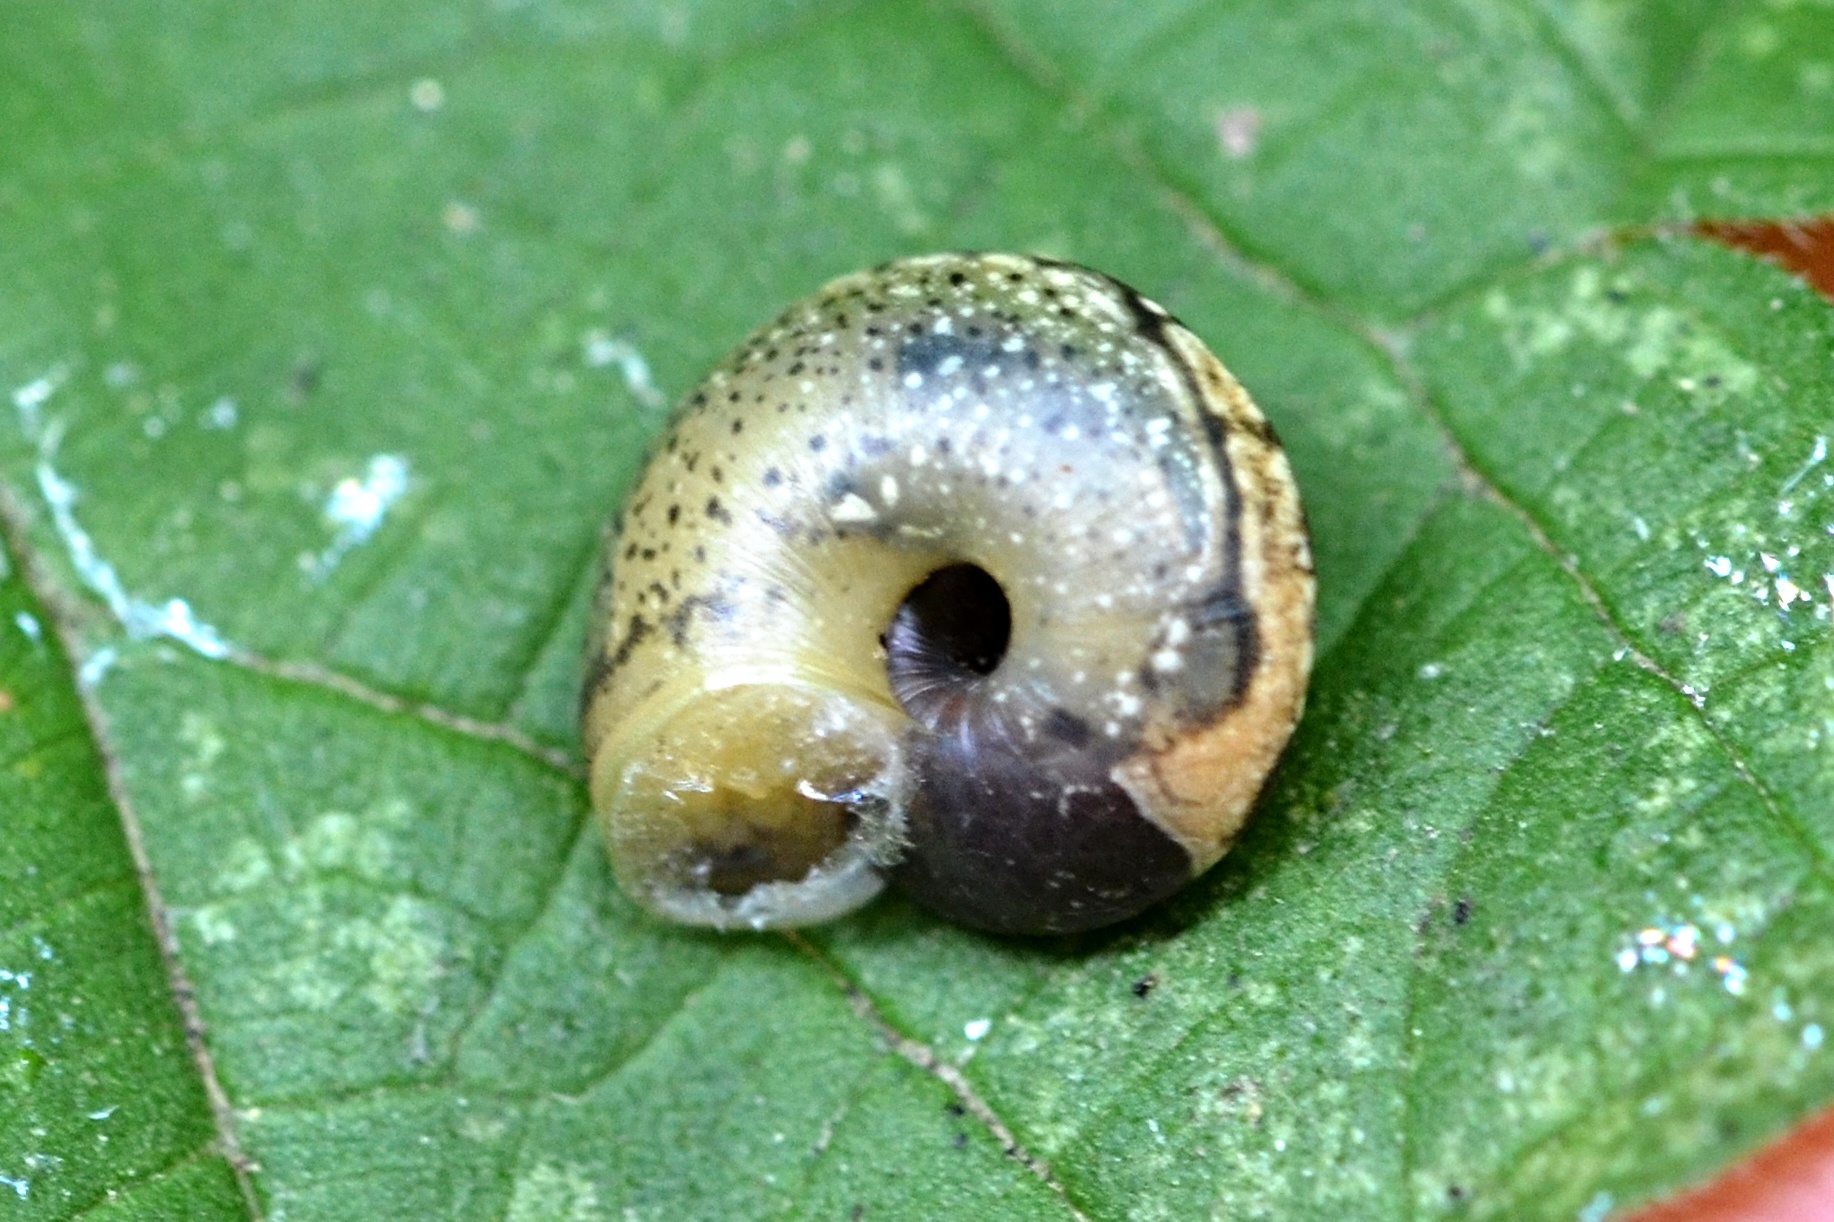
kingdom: Animalia
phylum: Mollusca
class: Gastropoda
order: Stylommatophora
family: Hygromiidae
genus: Urticicola
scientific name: Urticicola umbrosus
